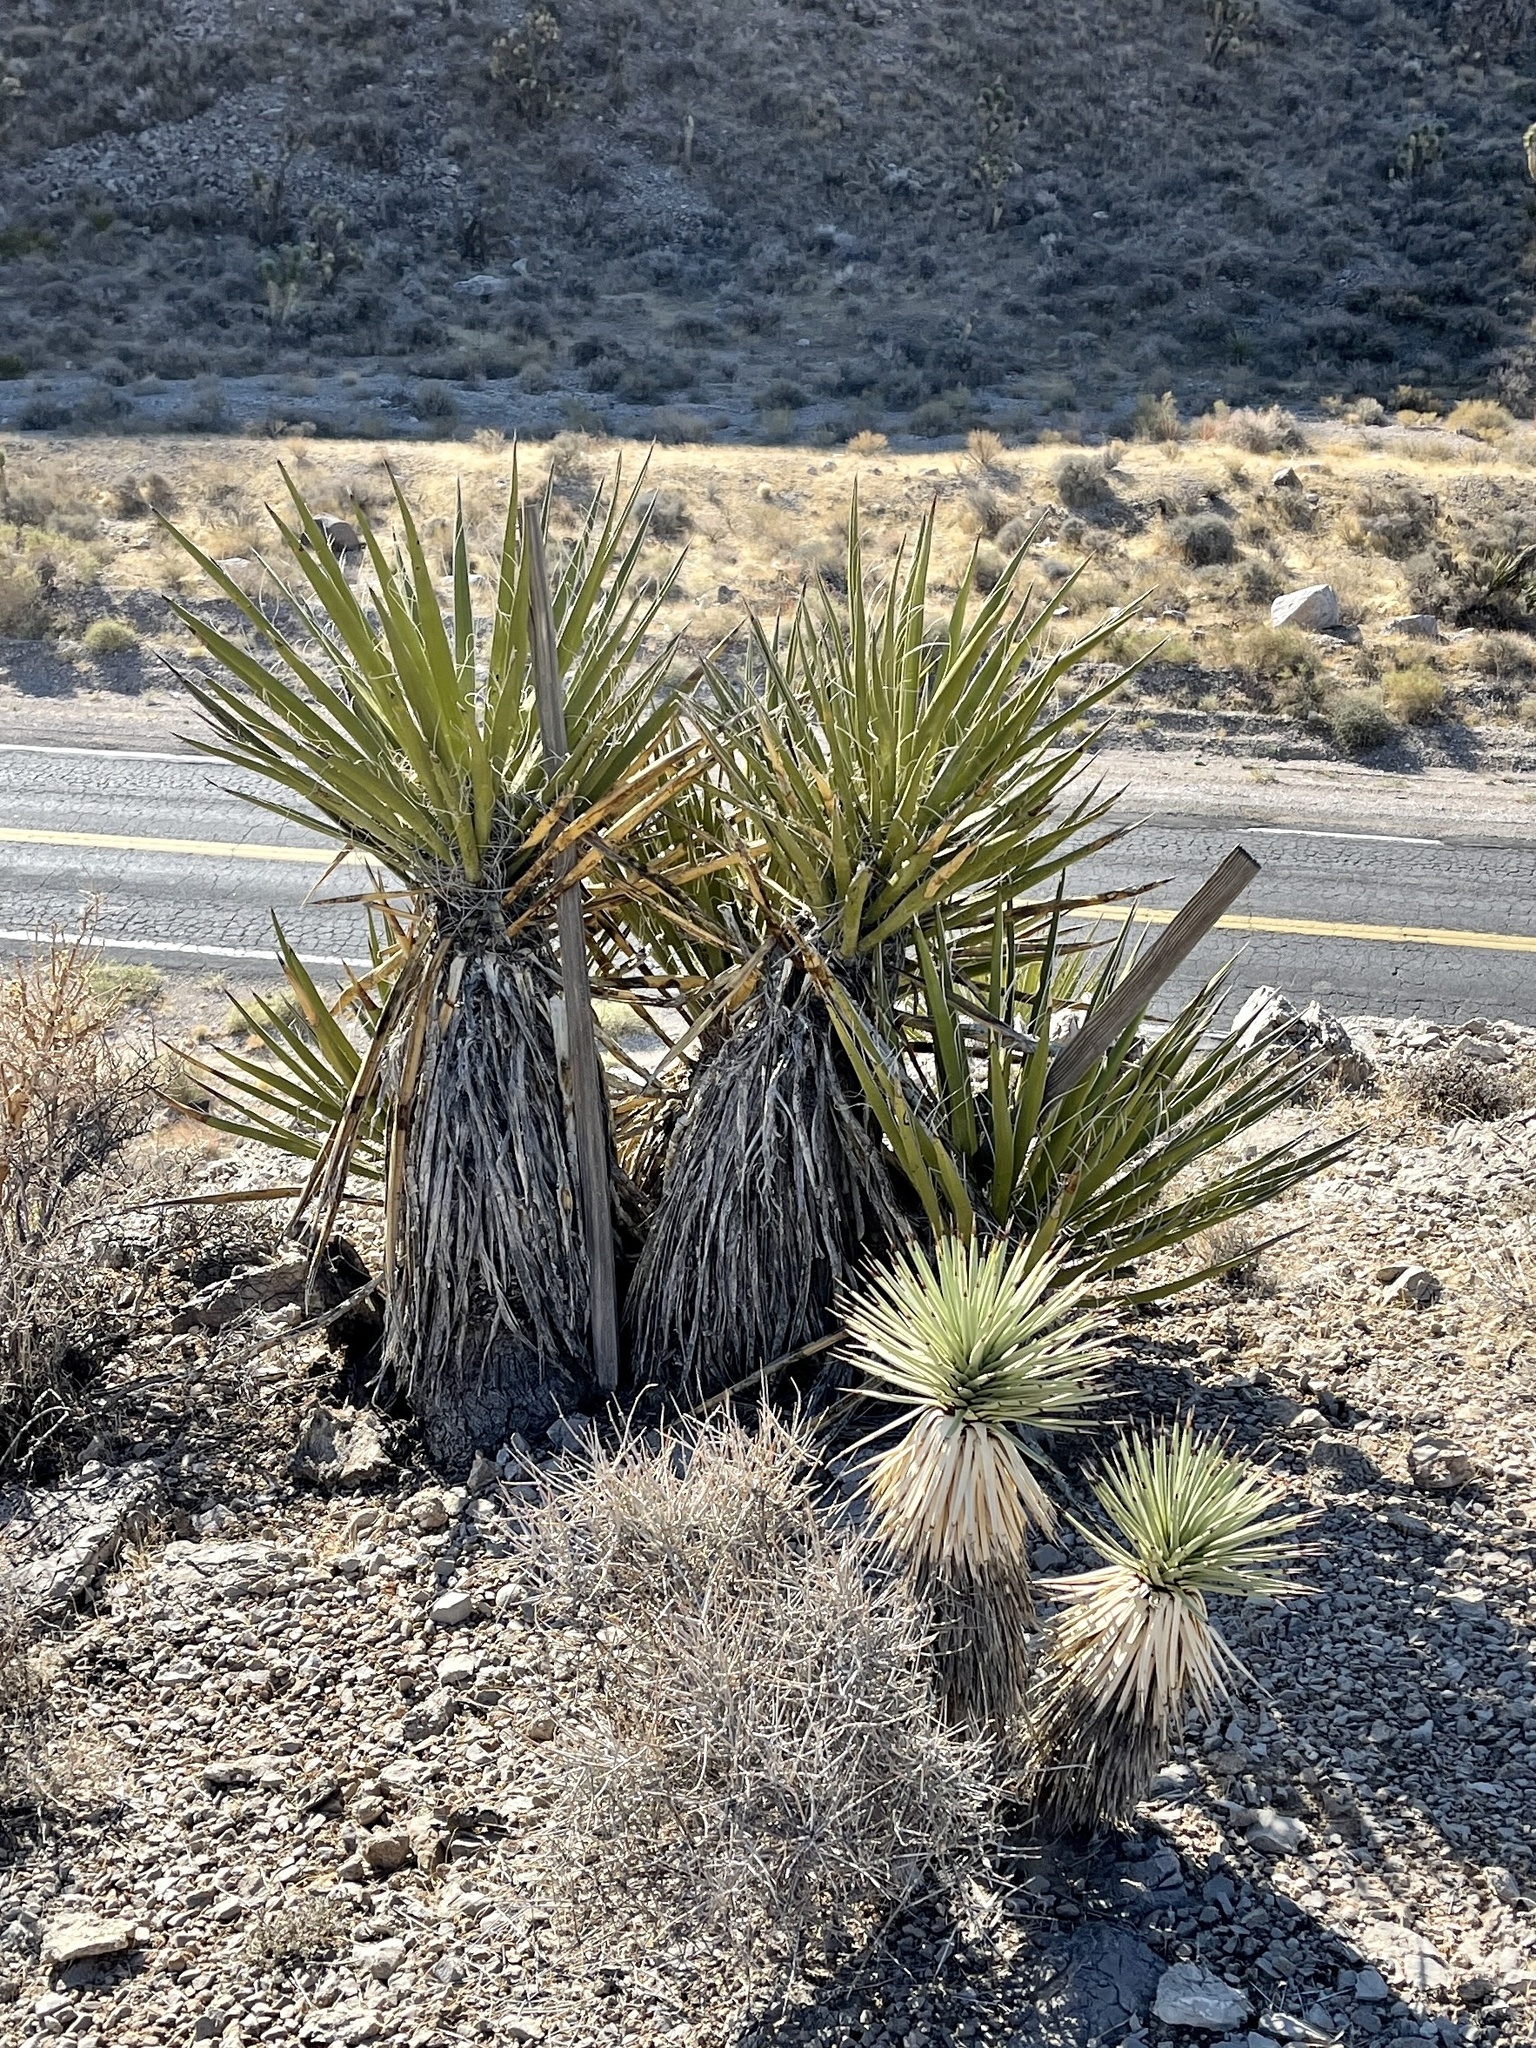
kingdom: Plantae
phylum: Tracheophyta
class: Liliopsida
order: Asparagales
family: Asparagaceae
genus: Yucca
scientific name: Yucca schidigera
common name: Mojave yucca
